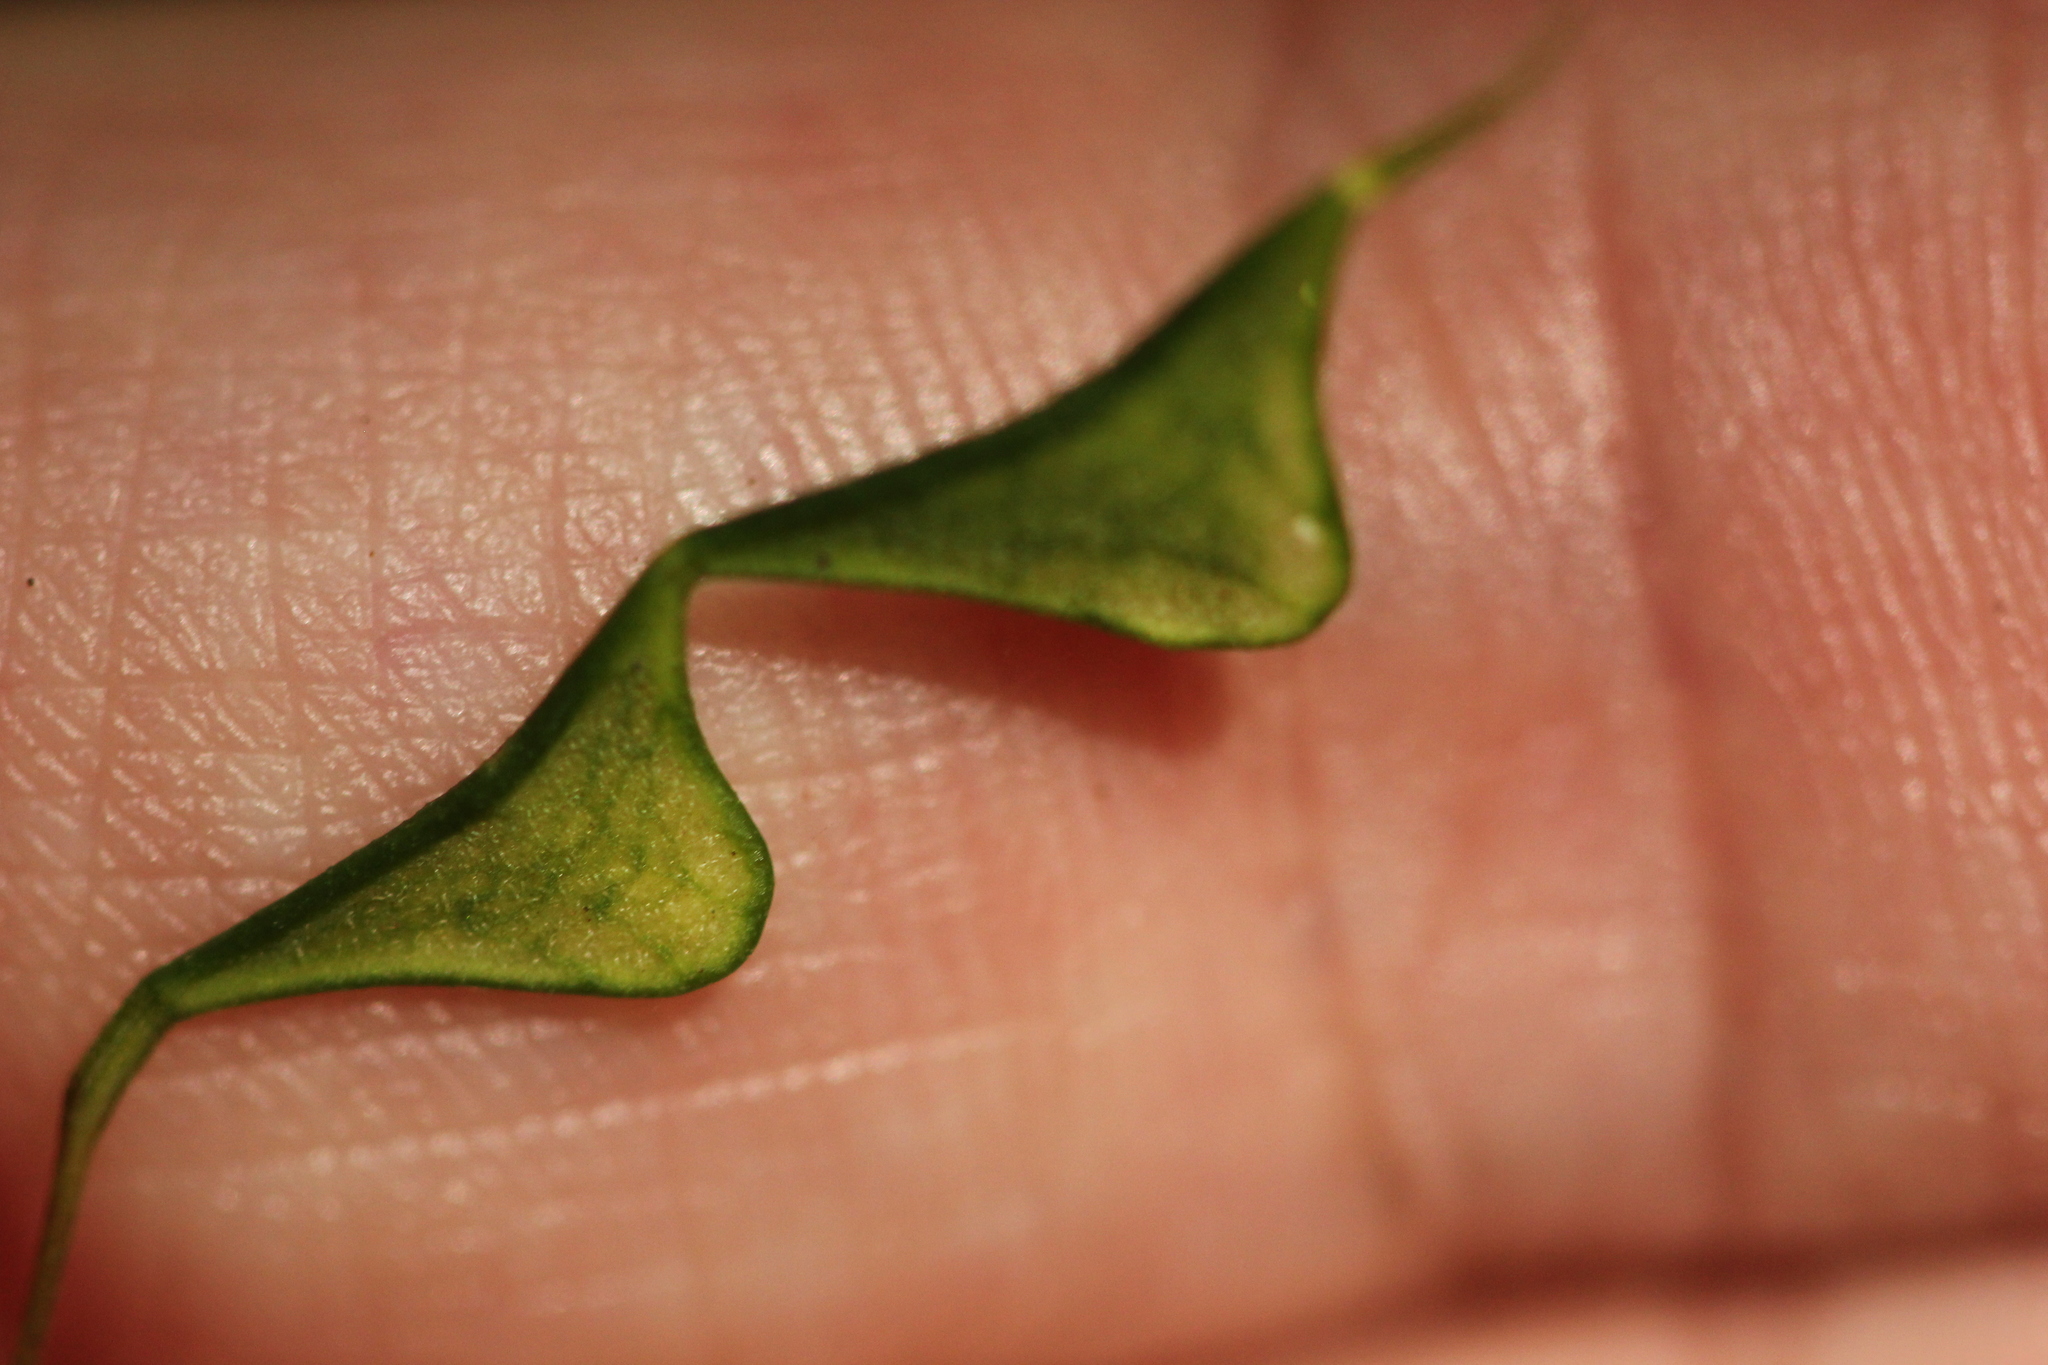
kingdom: Plantae
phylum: Tracheophyta
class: Magnoliopsida
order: Fabales
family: Fabaceae
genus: Hylodesmum
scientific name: Hylodesmum nudiflorum
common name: Bare-stemmed tick-trefoil
